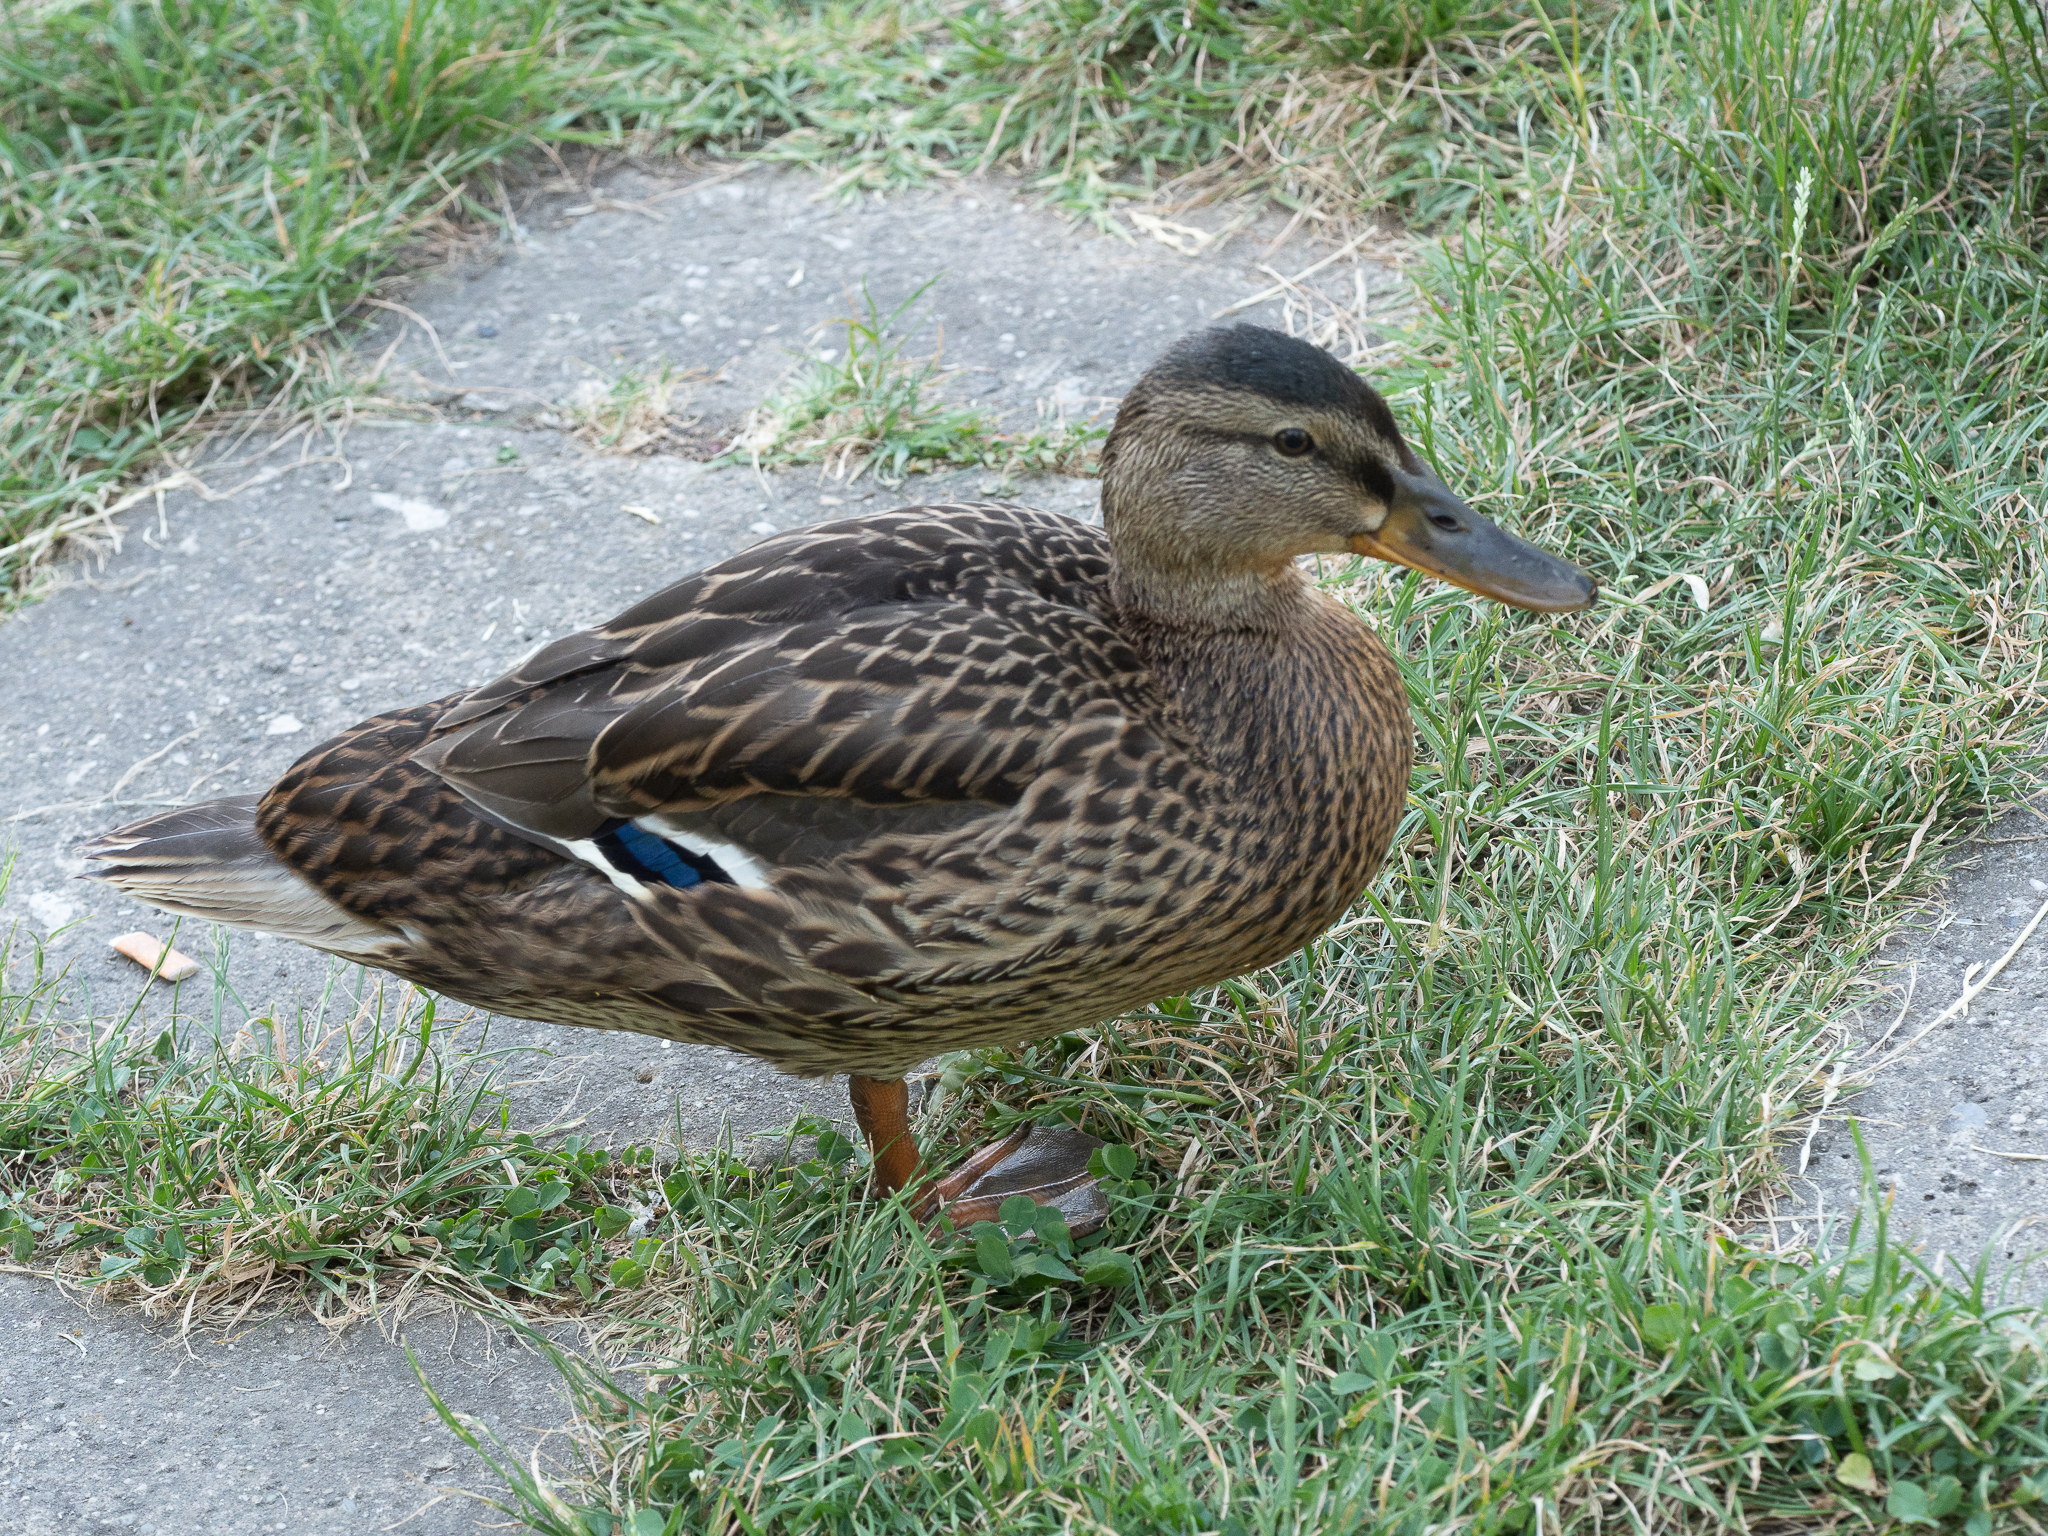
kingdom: Animalia
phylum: Chordata
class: Aves
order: Anseriformes
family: Anatidae
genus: Anas
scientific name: Anas platyrhynchos
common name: Mallard
